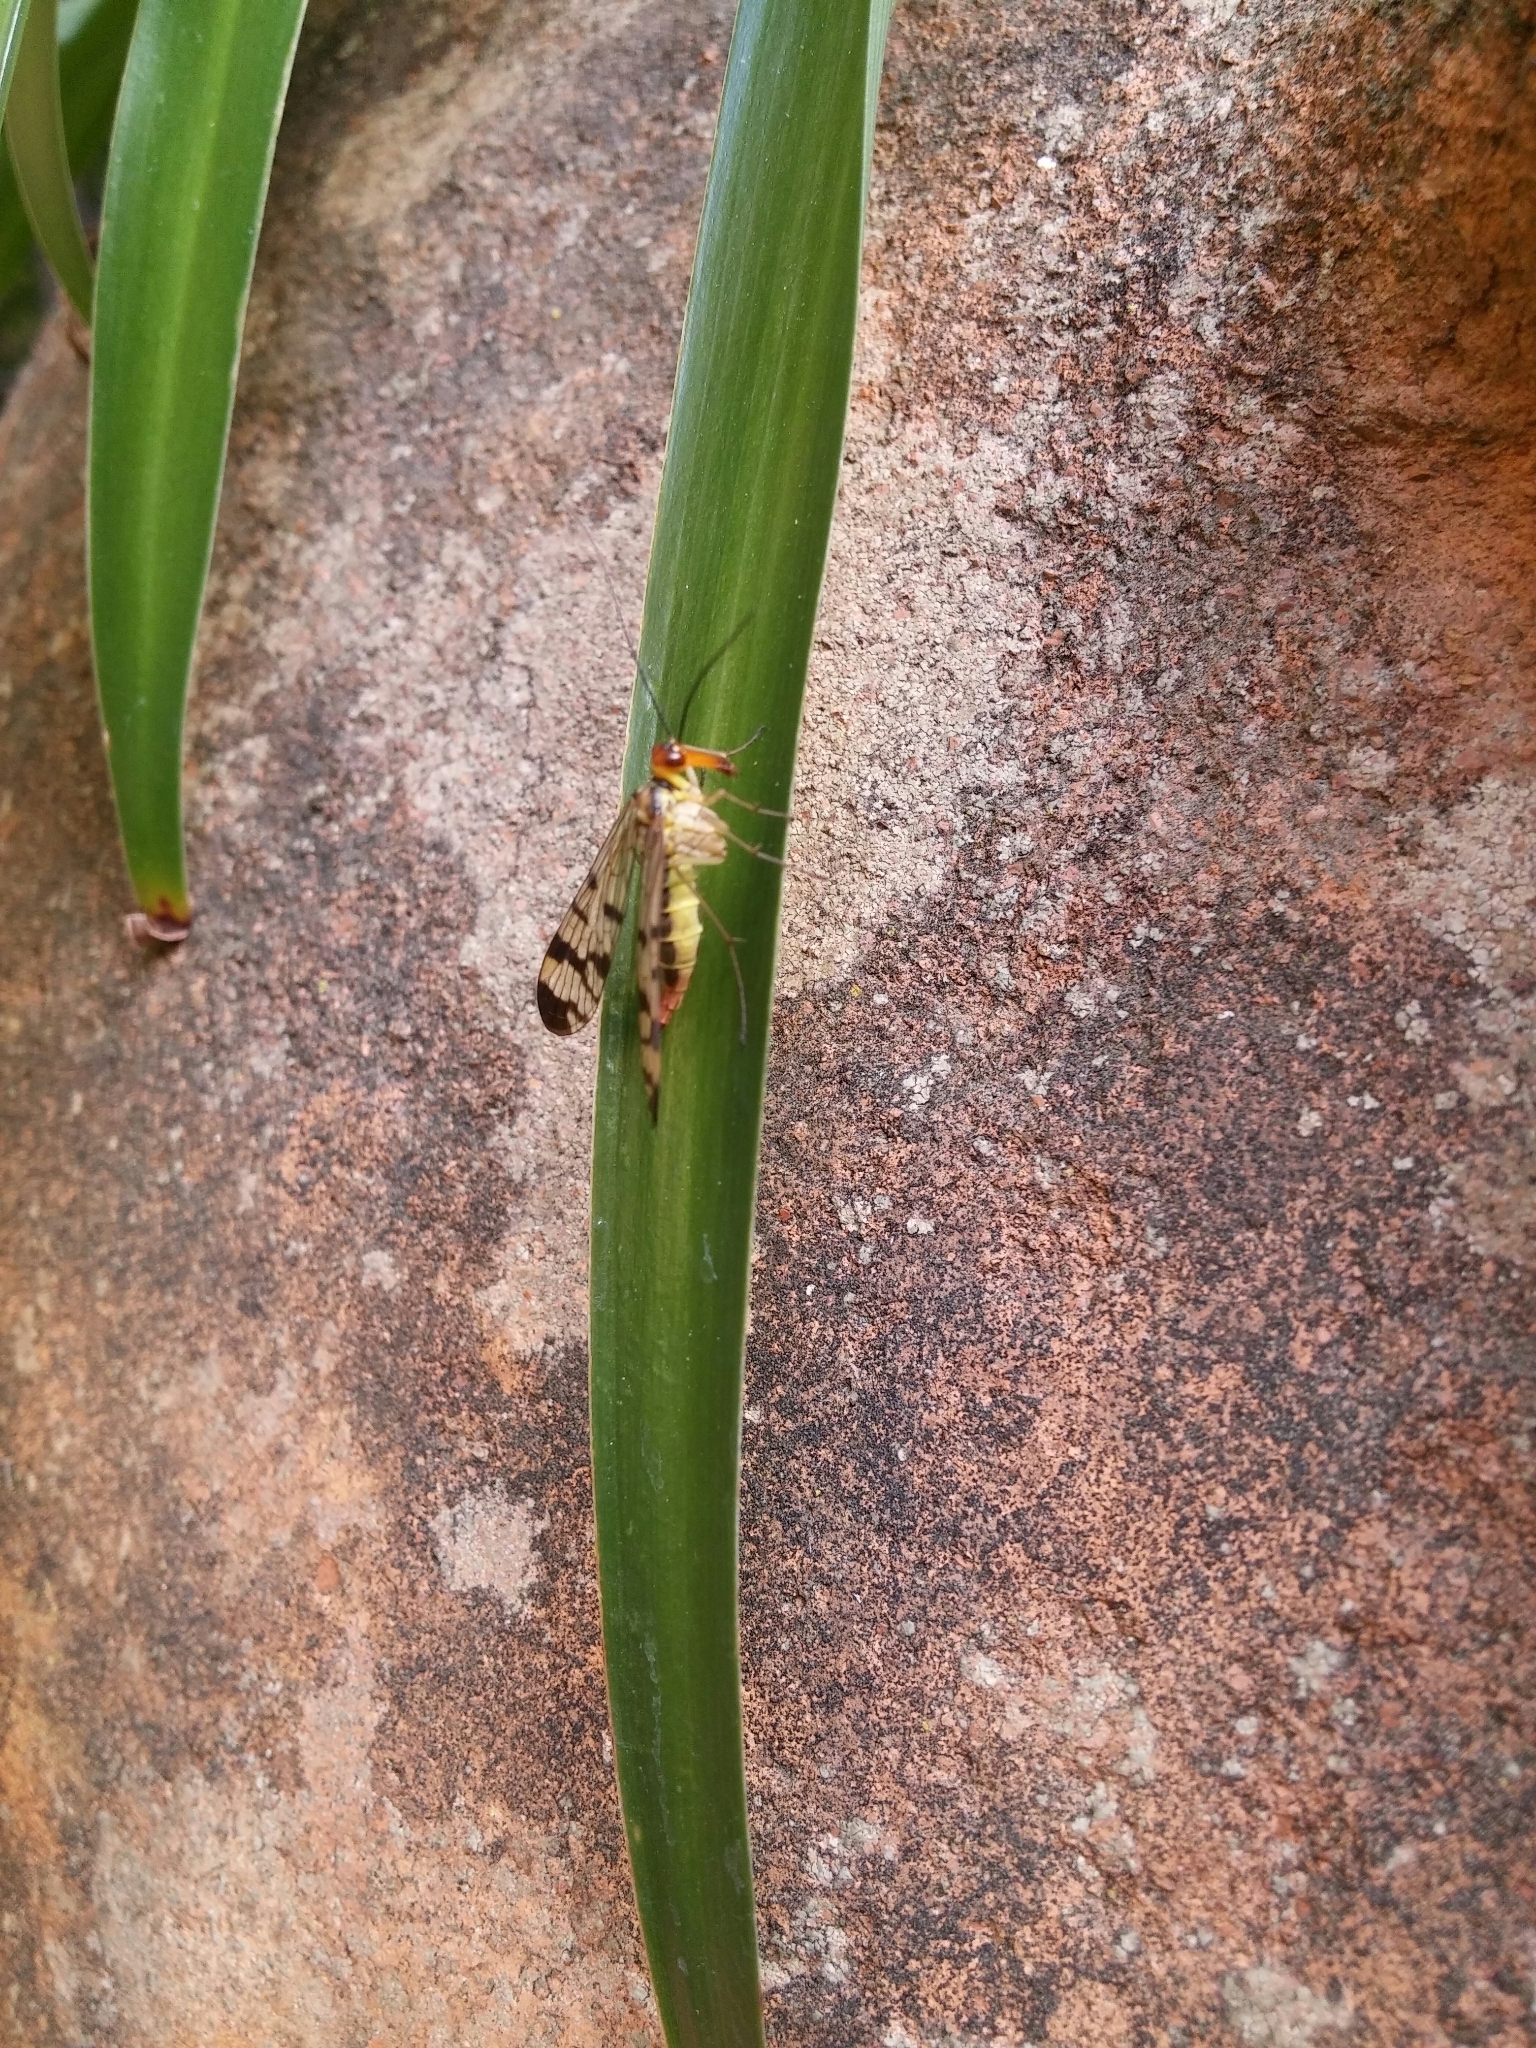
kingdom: Animalia
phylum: Arthropoda
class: Insecta
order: Mecoptera
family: Panorpidae
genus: Panorpa
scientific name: Panorpa etrusca
